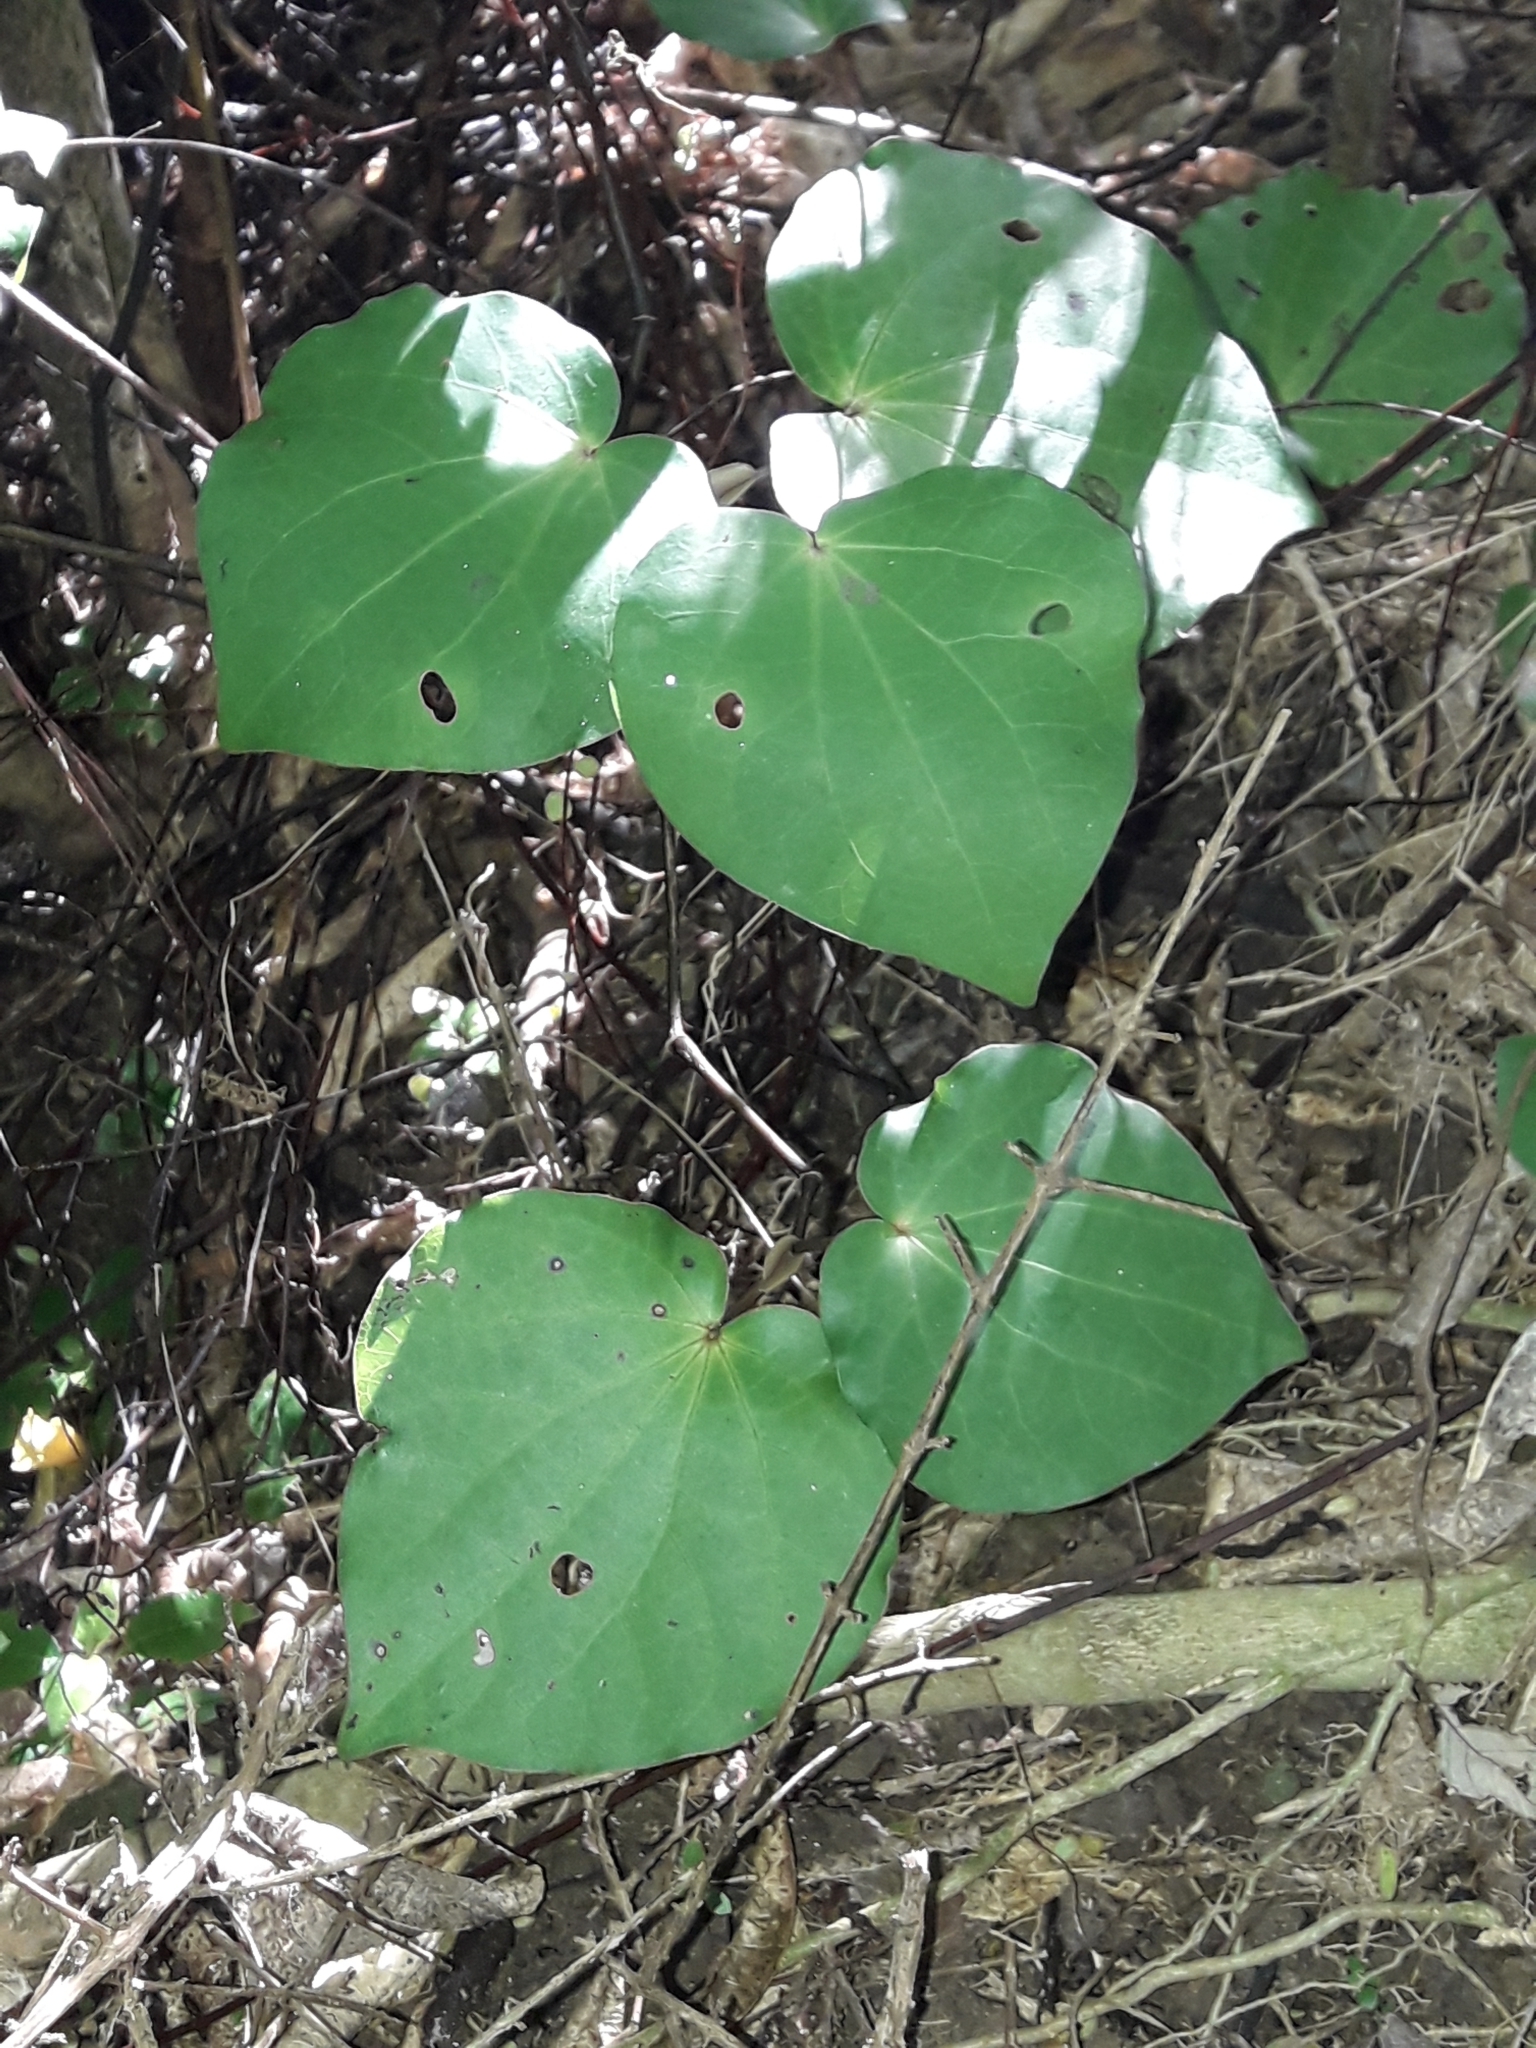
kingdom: Plantae
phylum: Tracheophyta
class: Magnoliopsida
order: Piperales
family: Piperaceae
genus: Macropiper
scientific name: Macropiper excelsum
